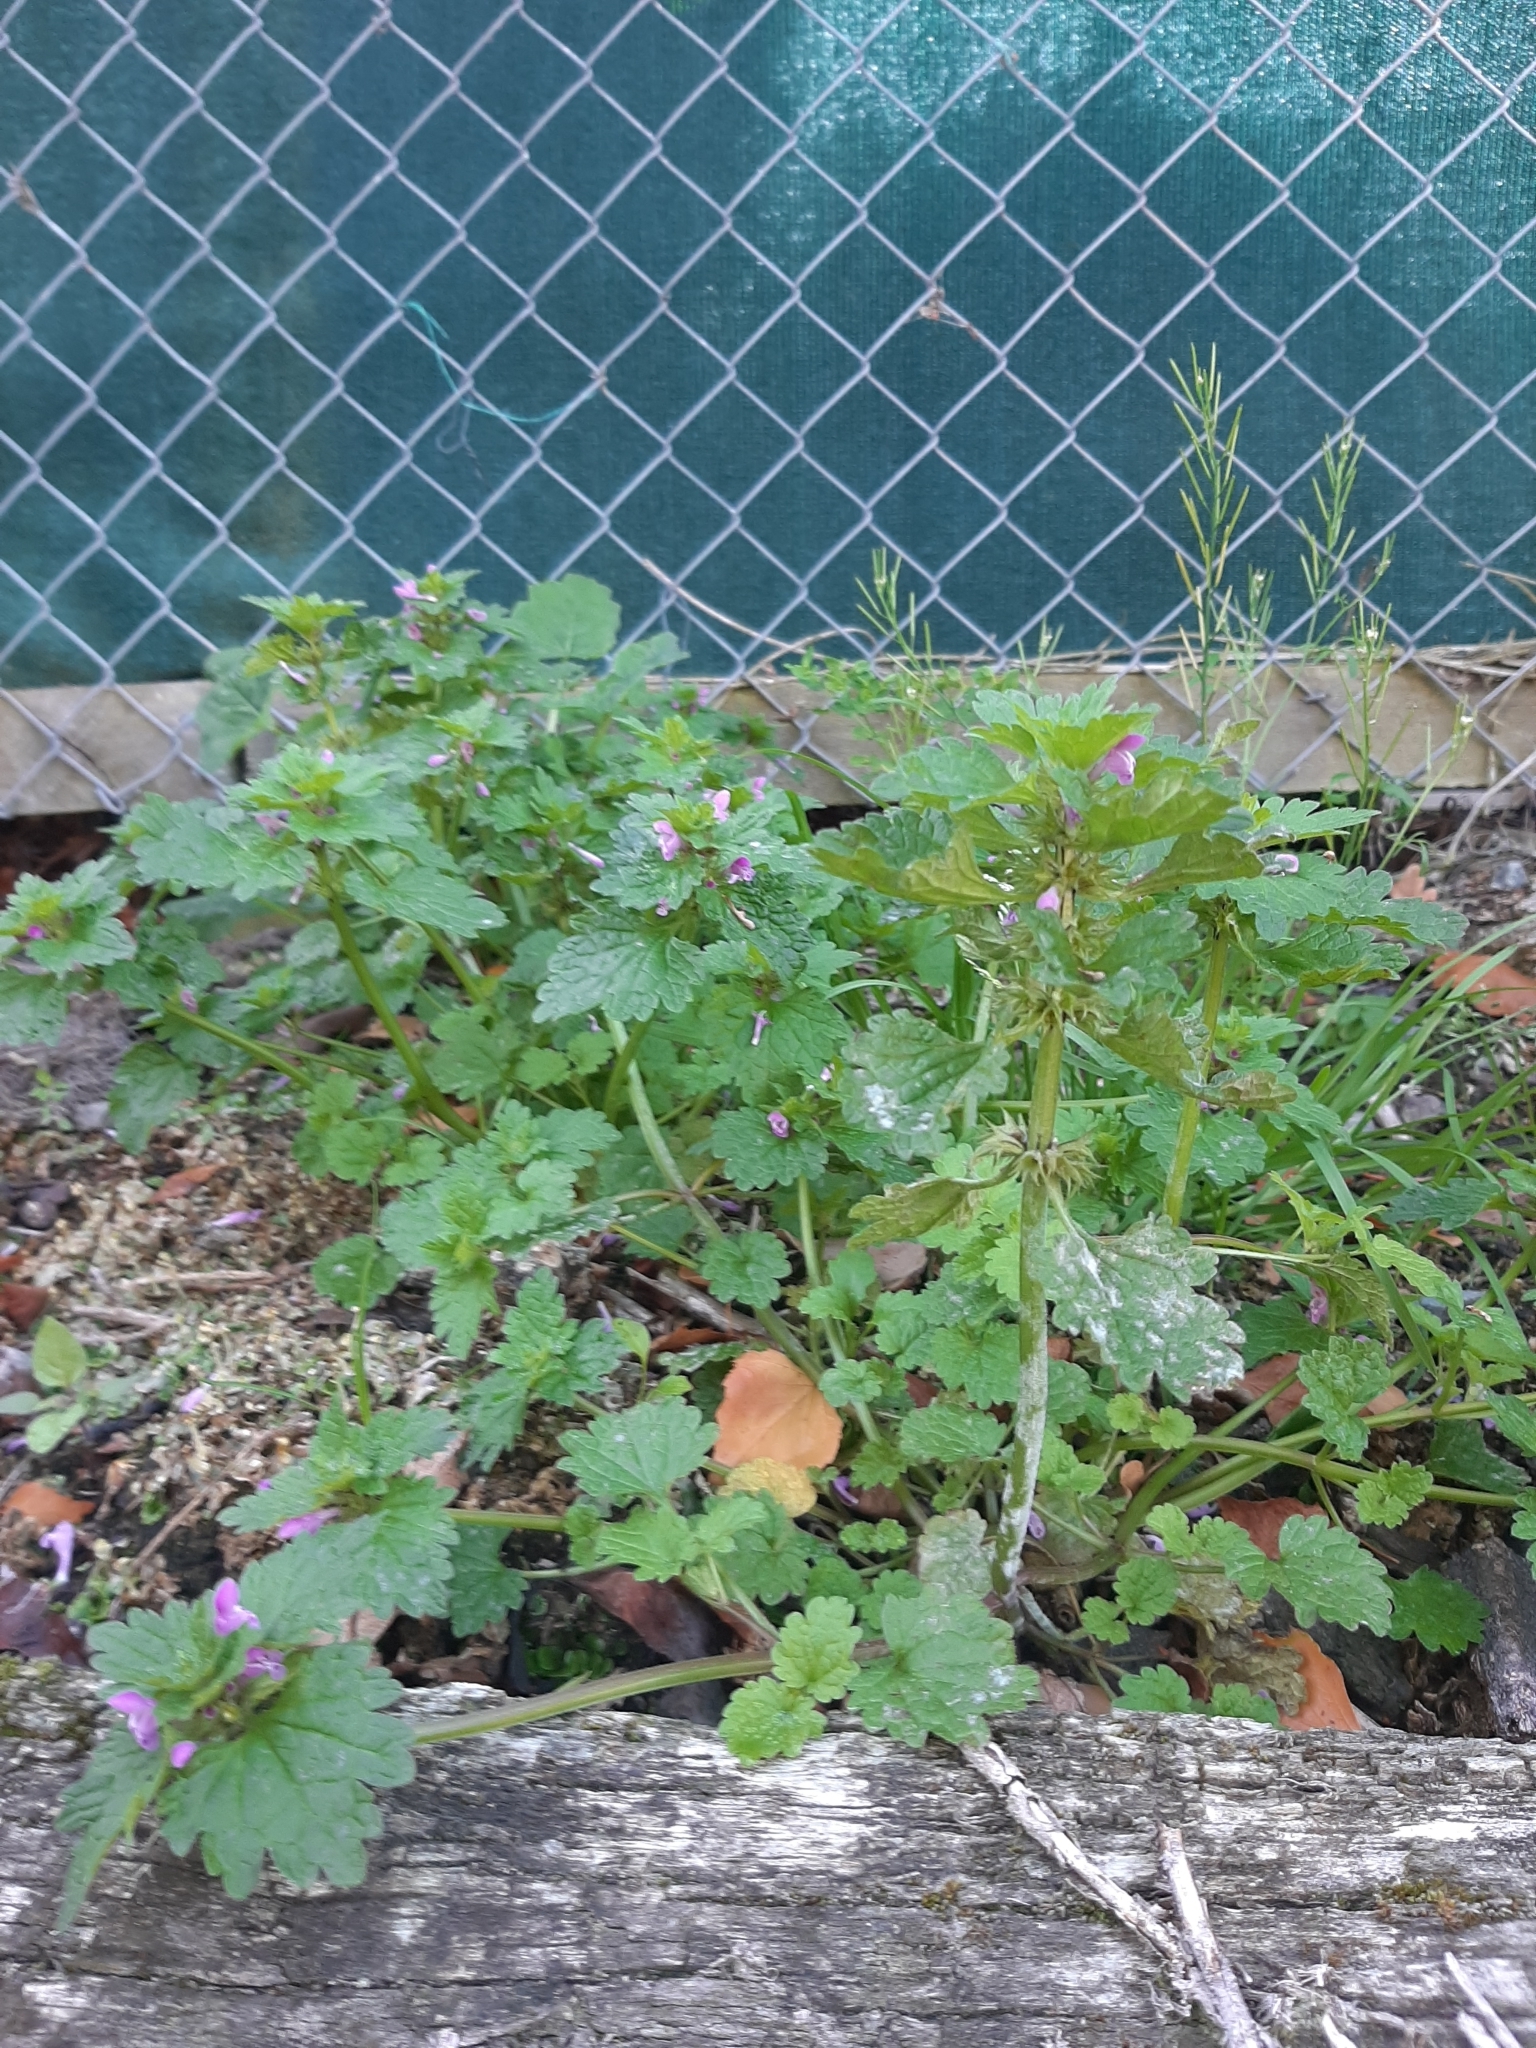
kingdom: Plantae
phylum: Tracheophyta
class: Magnoliopsida
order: Lamiales
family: Lamiaceae
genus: Lamium
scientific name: Lamium purpureum
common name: Red dead-nettle
